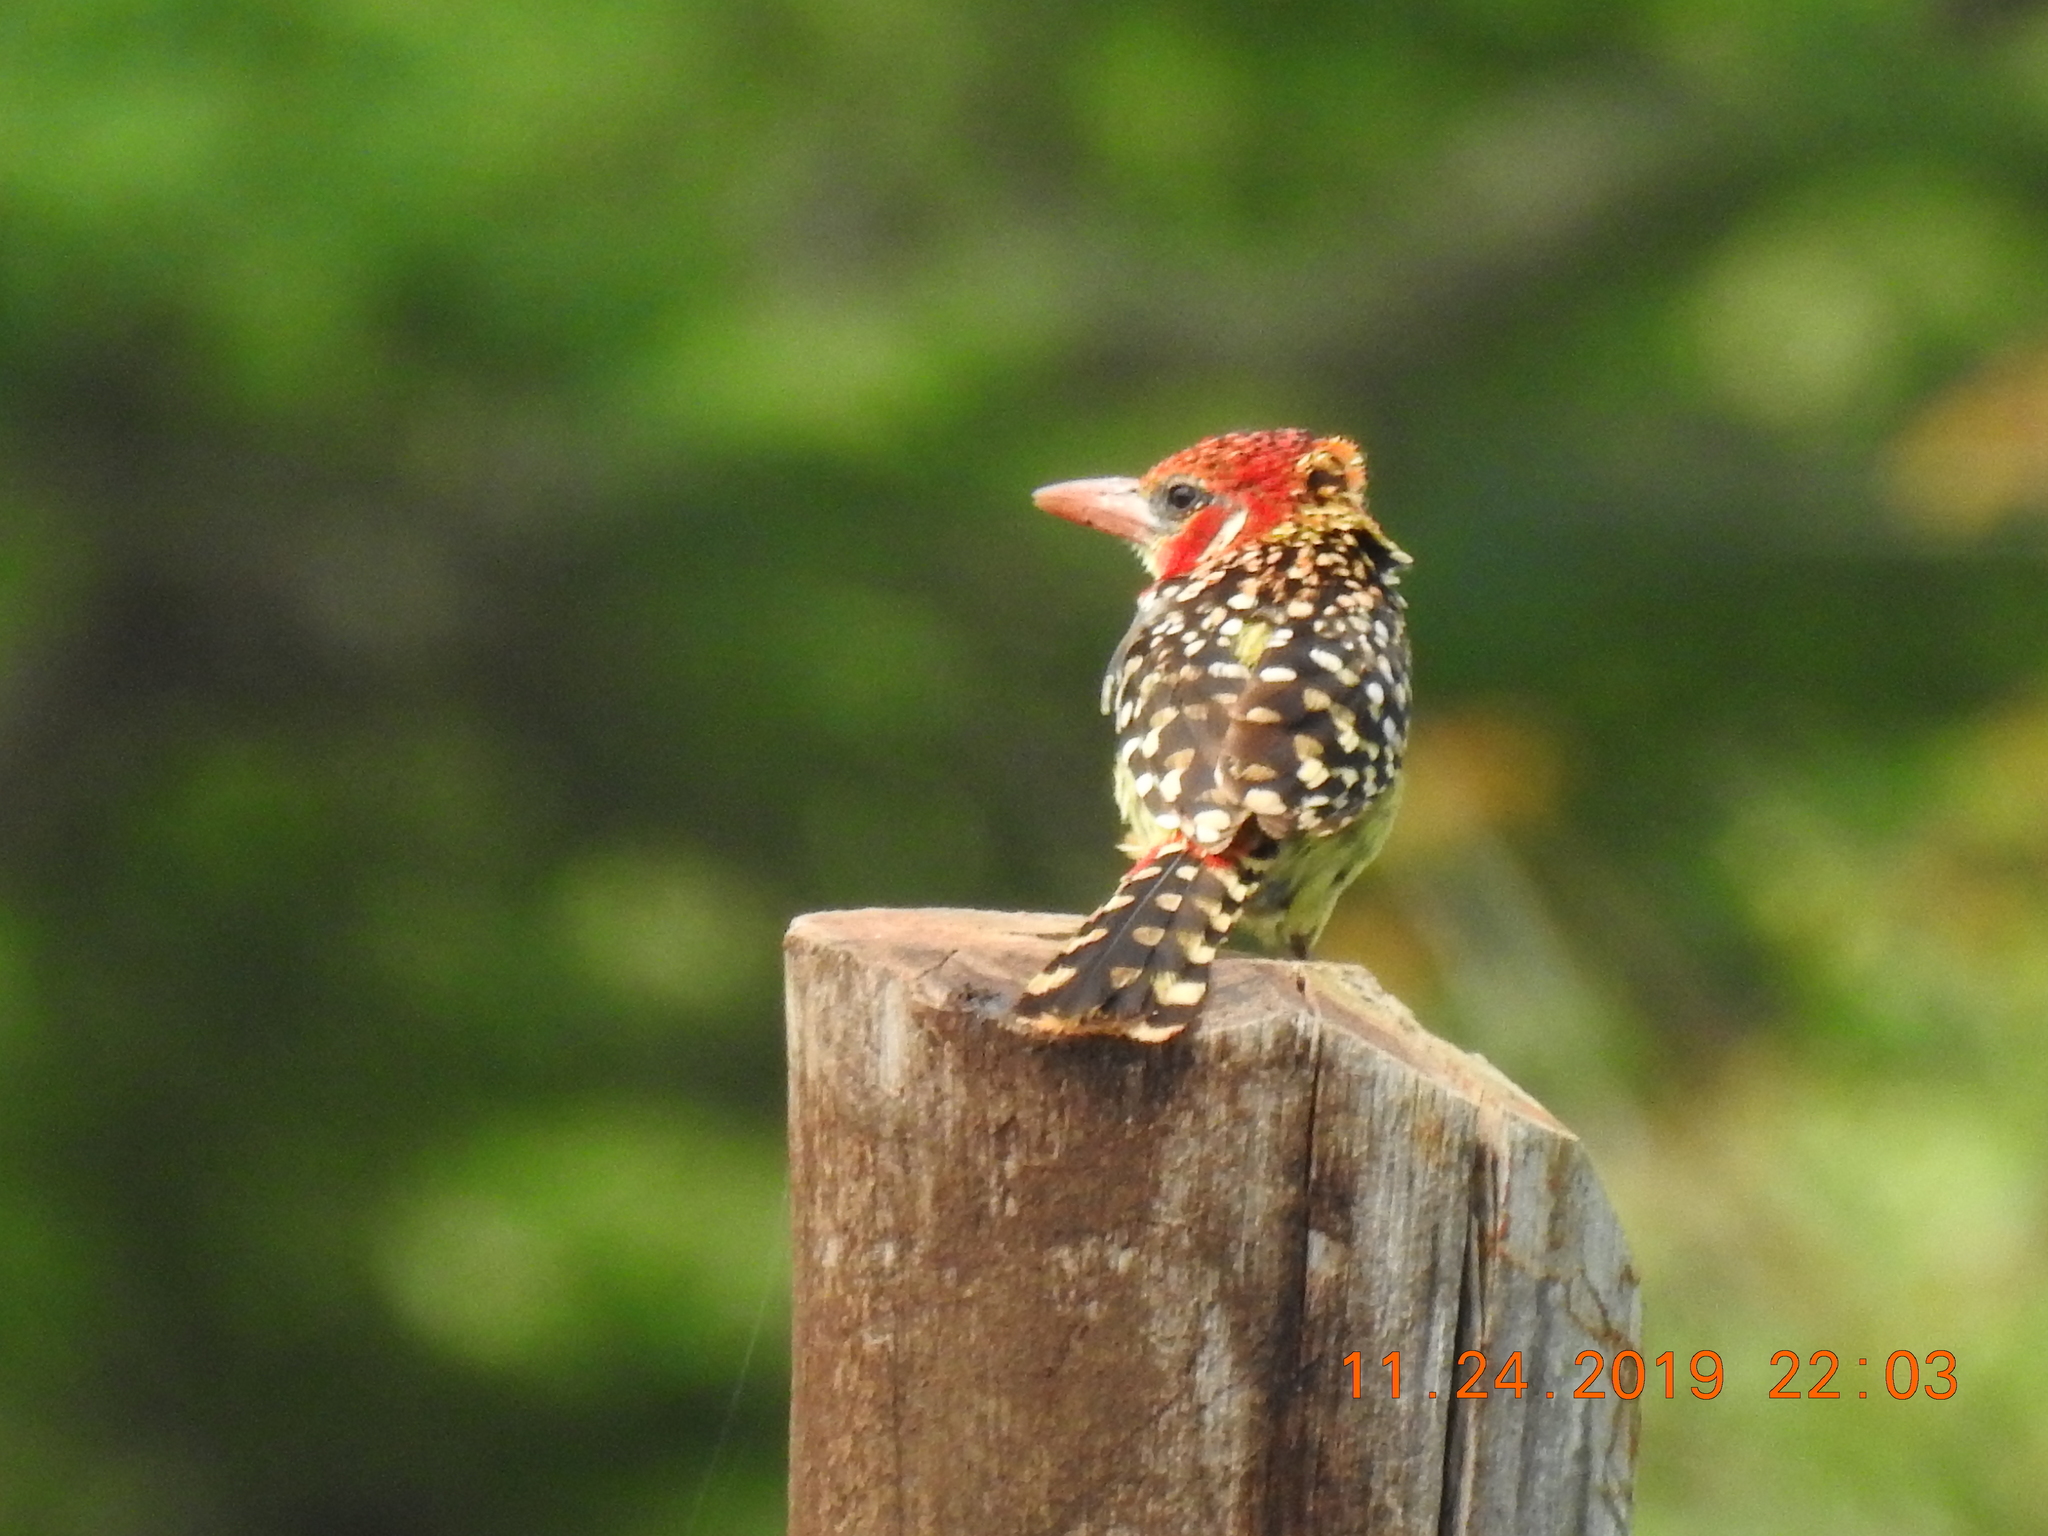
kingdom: Animalia
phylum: Chordata
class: Aves
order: Piciformes
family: Lybiidae
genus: Trachyphonus
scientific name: Trachyphonus erythrocephalus
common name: Red-and-yellow barbet
